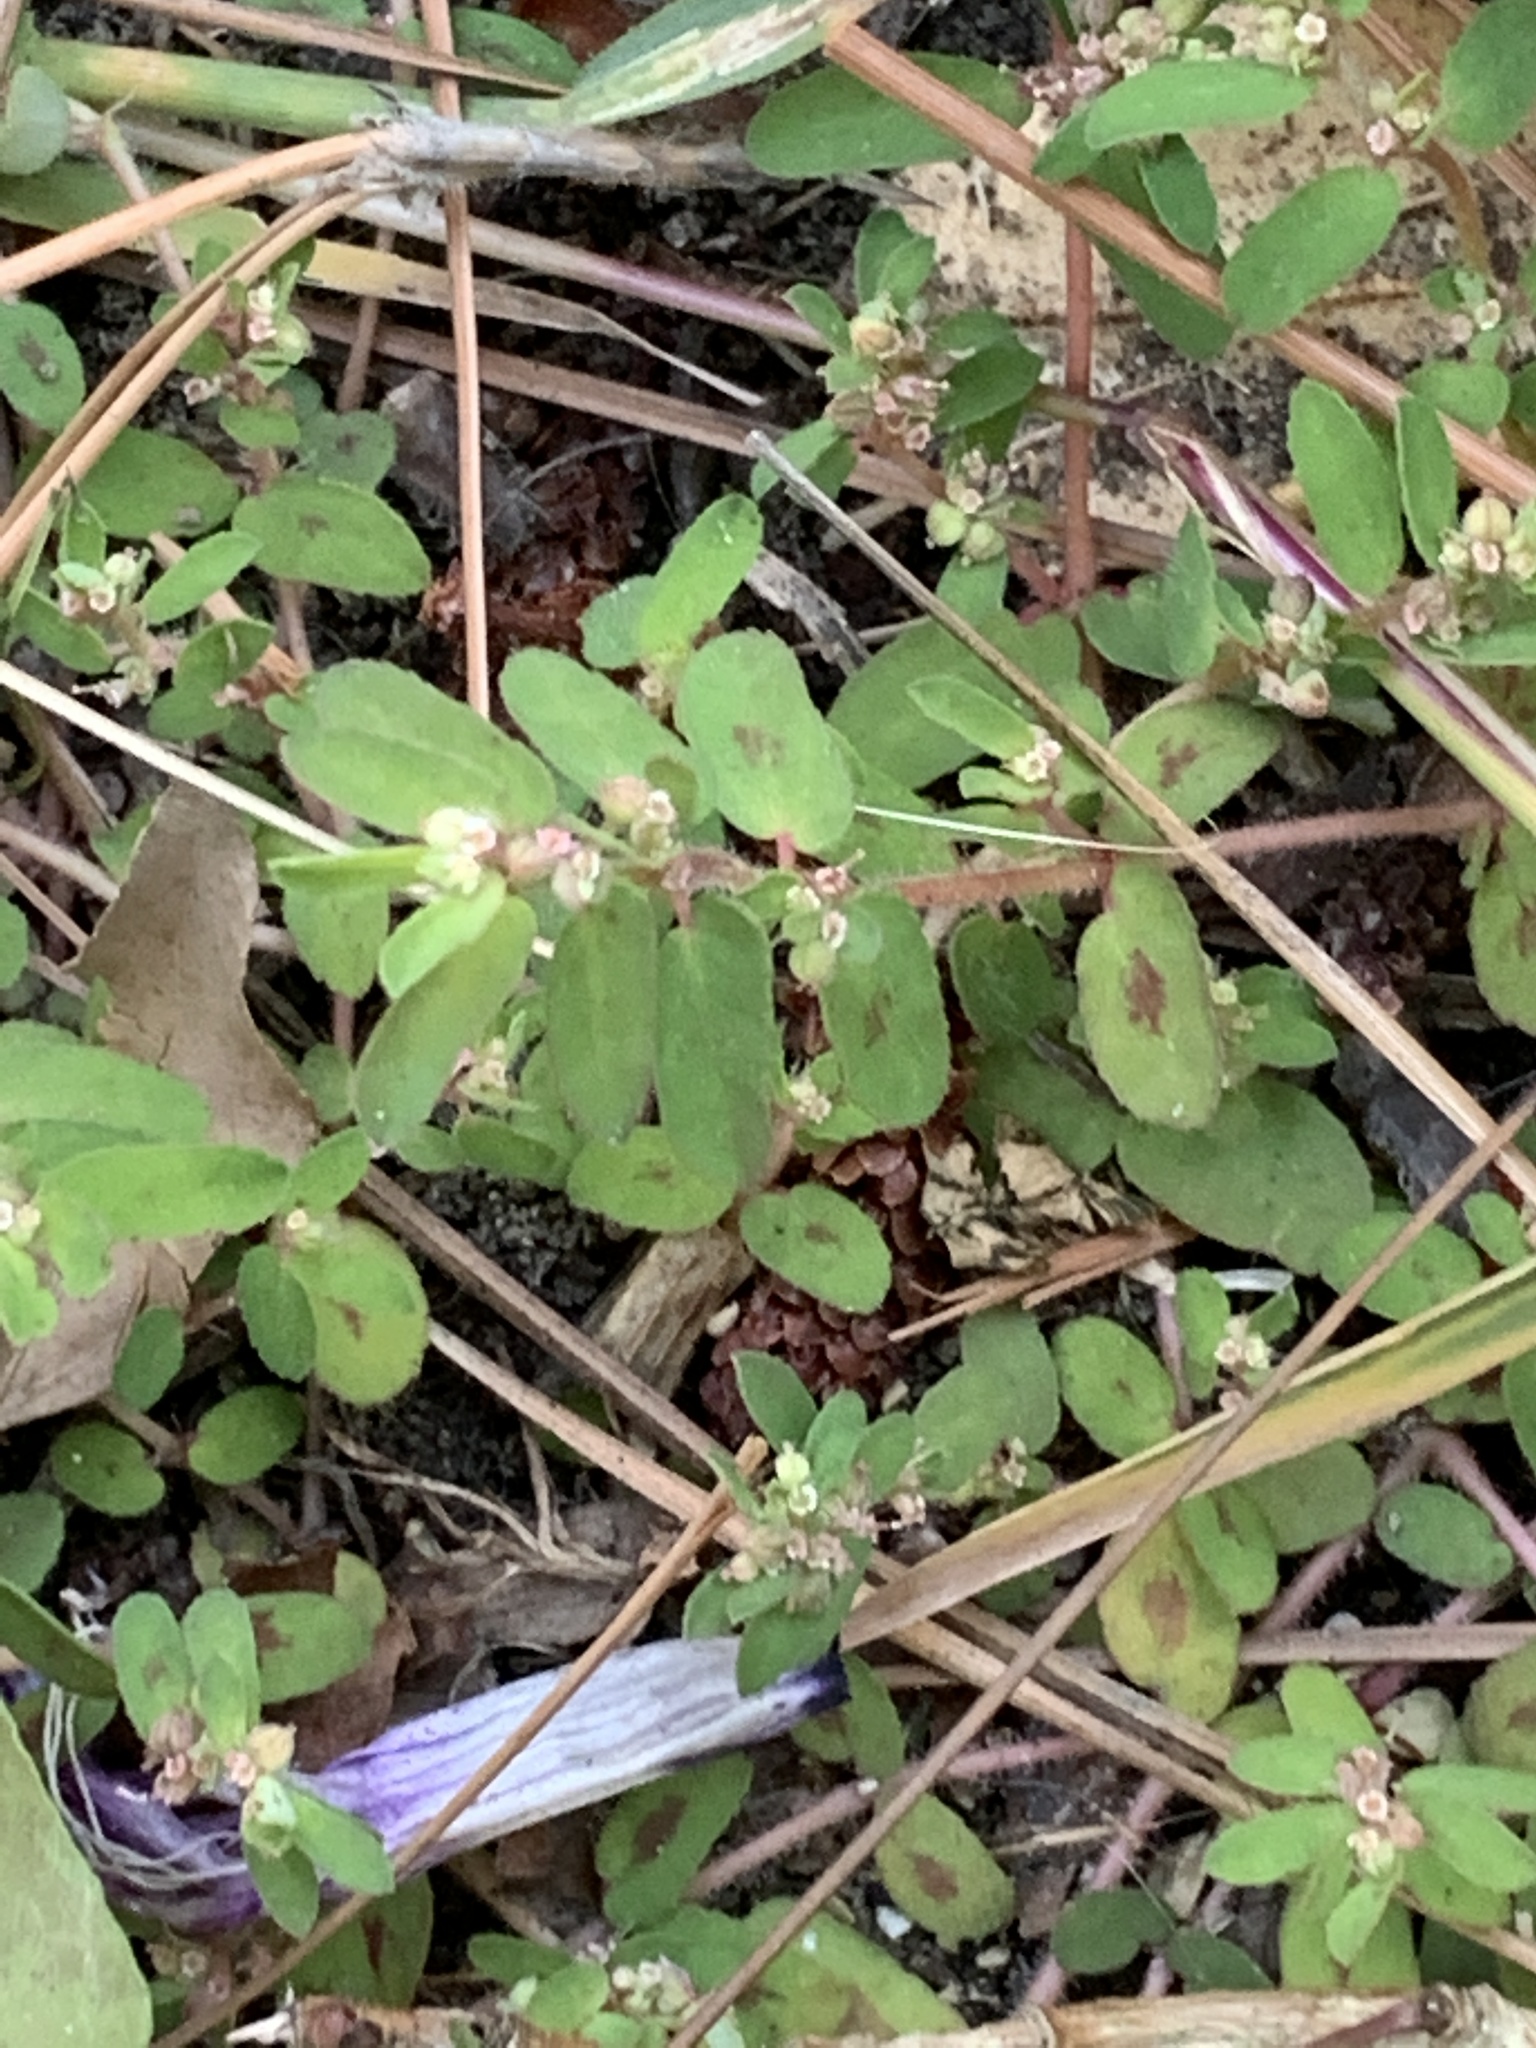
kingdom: Plantae
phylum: Tracheophyta
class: Magnoliopsida
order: Malpighiales
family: Euphorbiaceae
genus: Euphorbia
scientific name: Euphorbia maculata
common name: Spotted spurge
